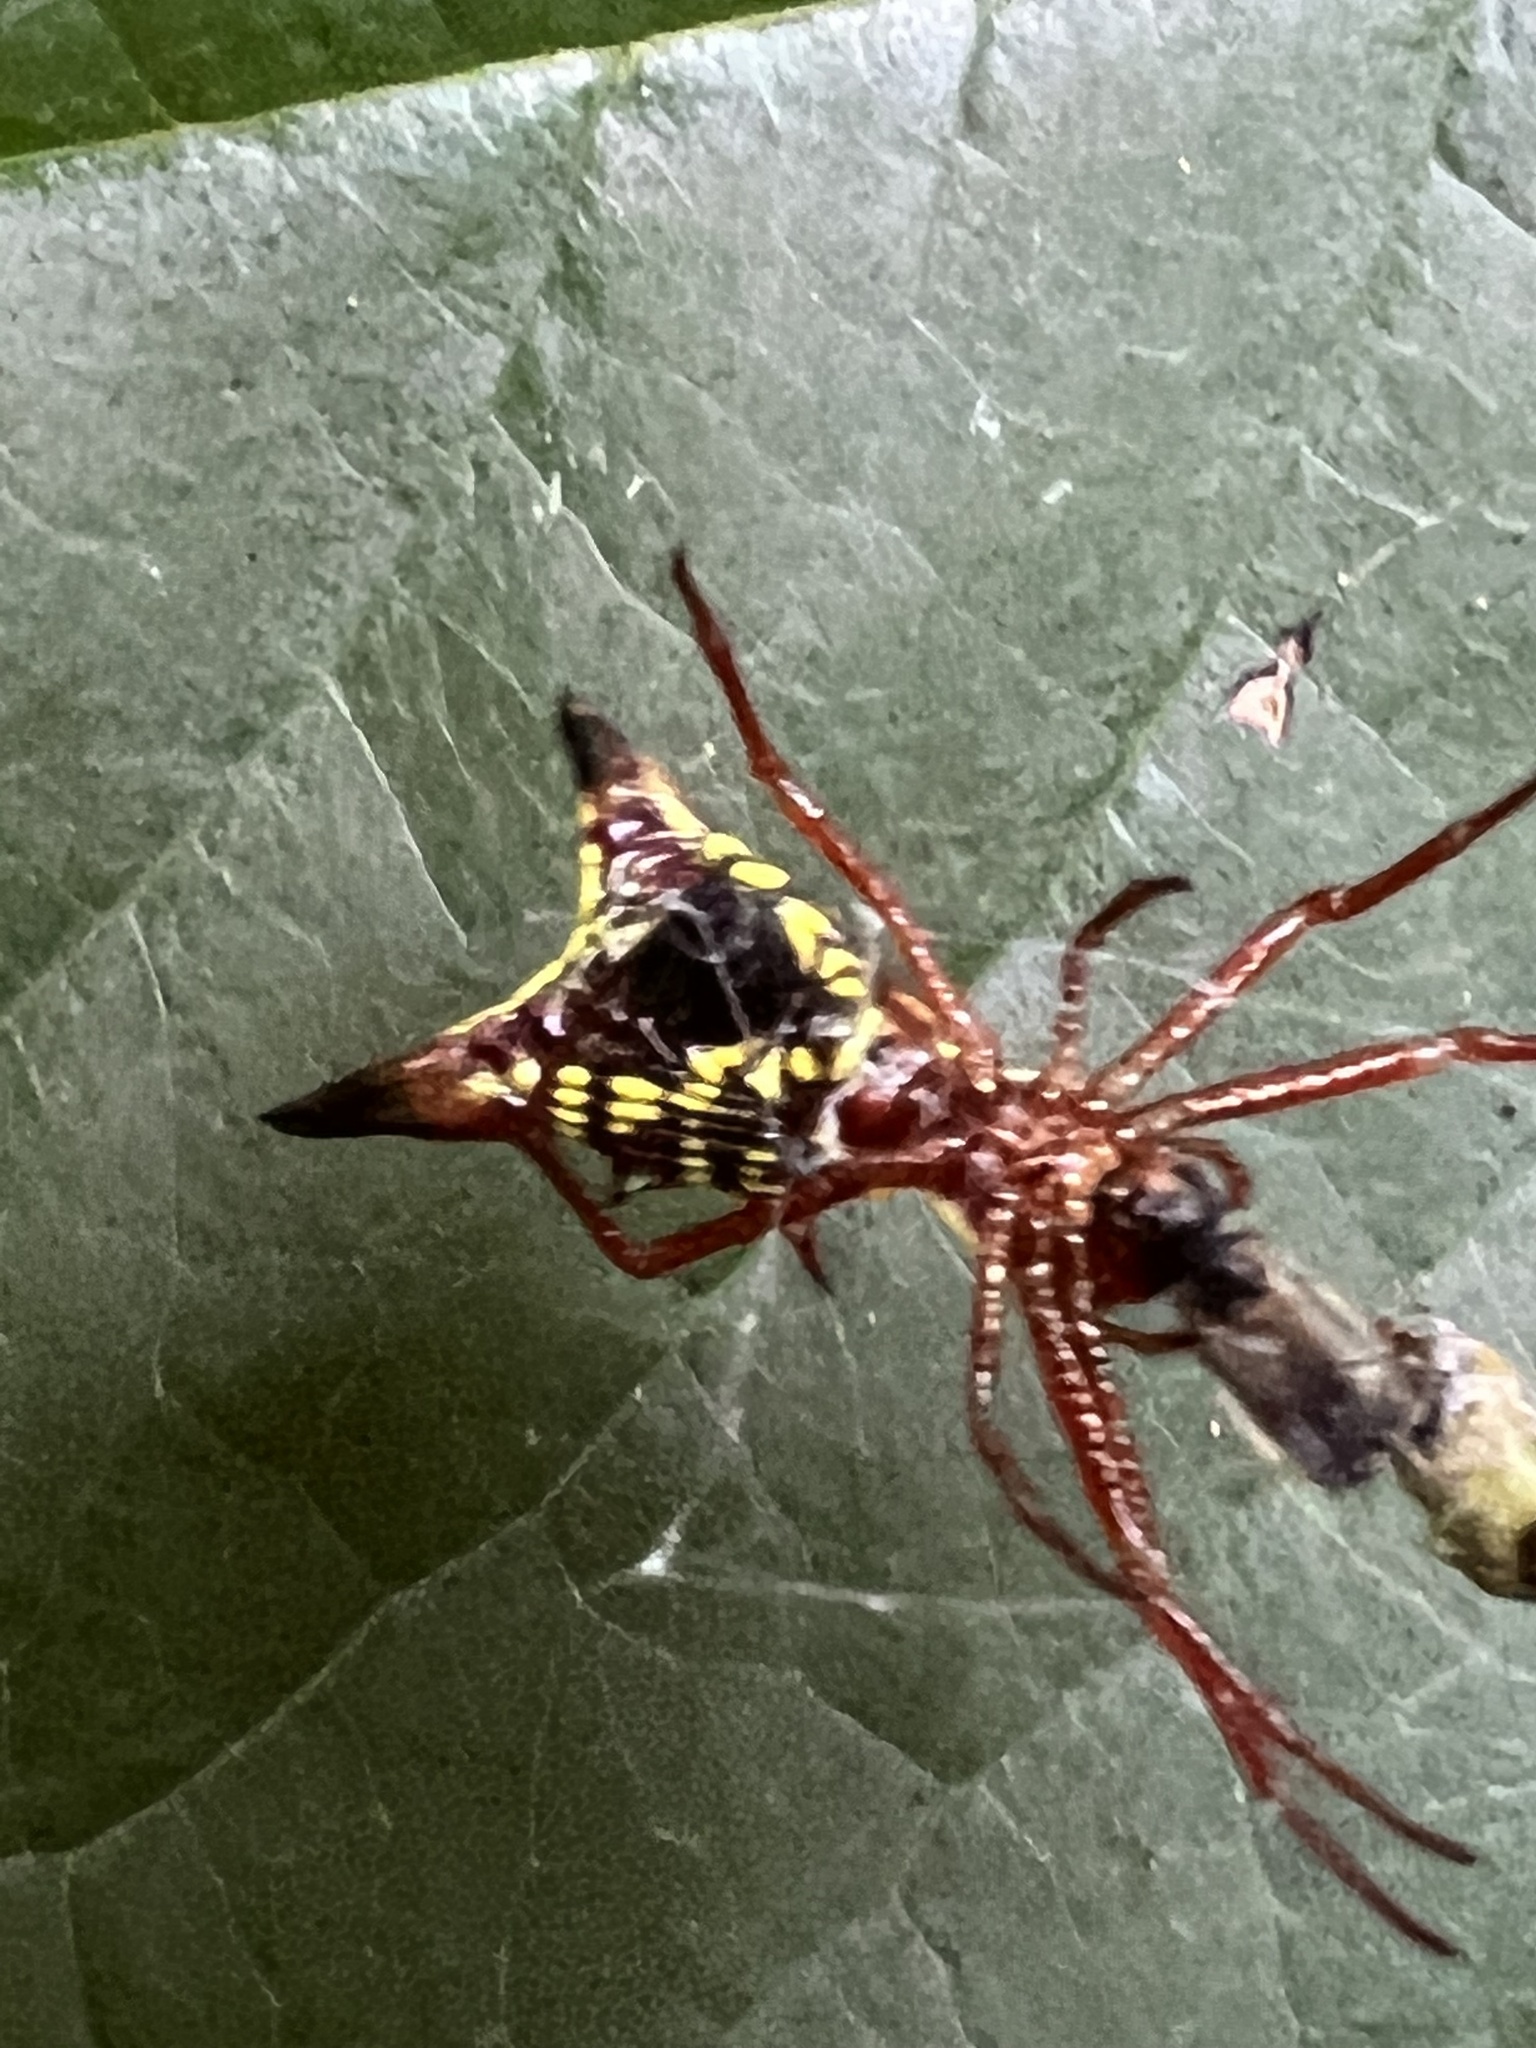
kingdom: Animalia
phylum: Arthropoda
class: Arachnida
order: Araneae
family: Araneidae
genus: Micrathena
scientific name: Micrathena sagittata
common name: Orb weavers
